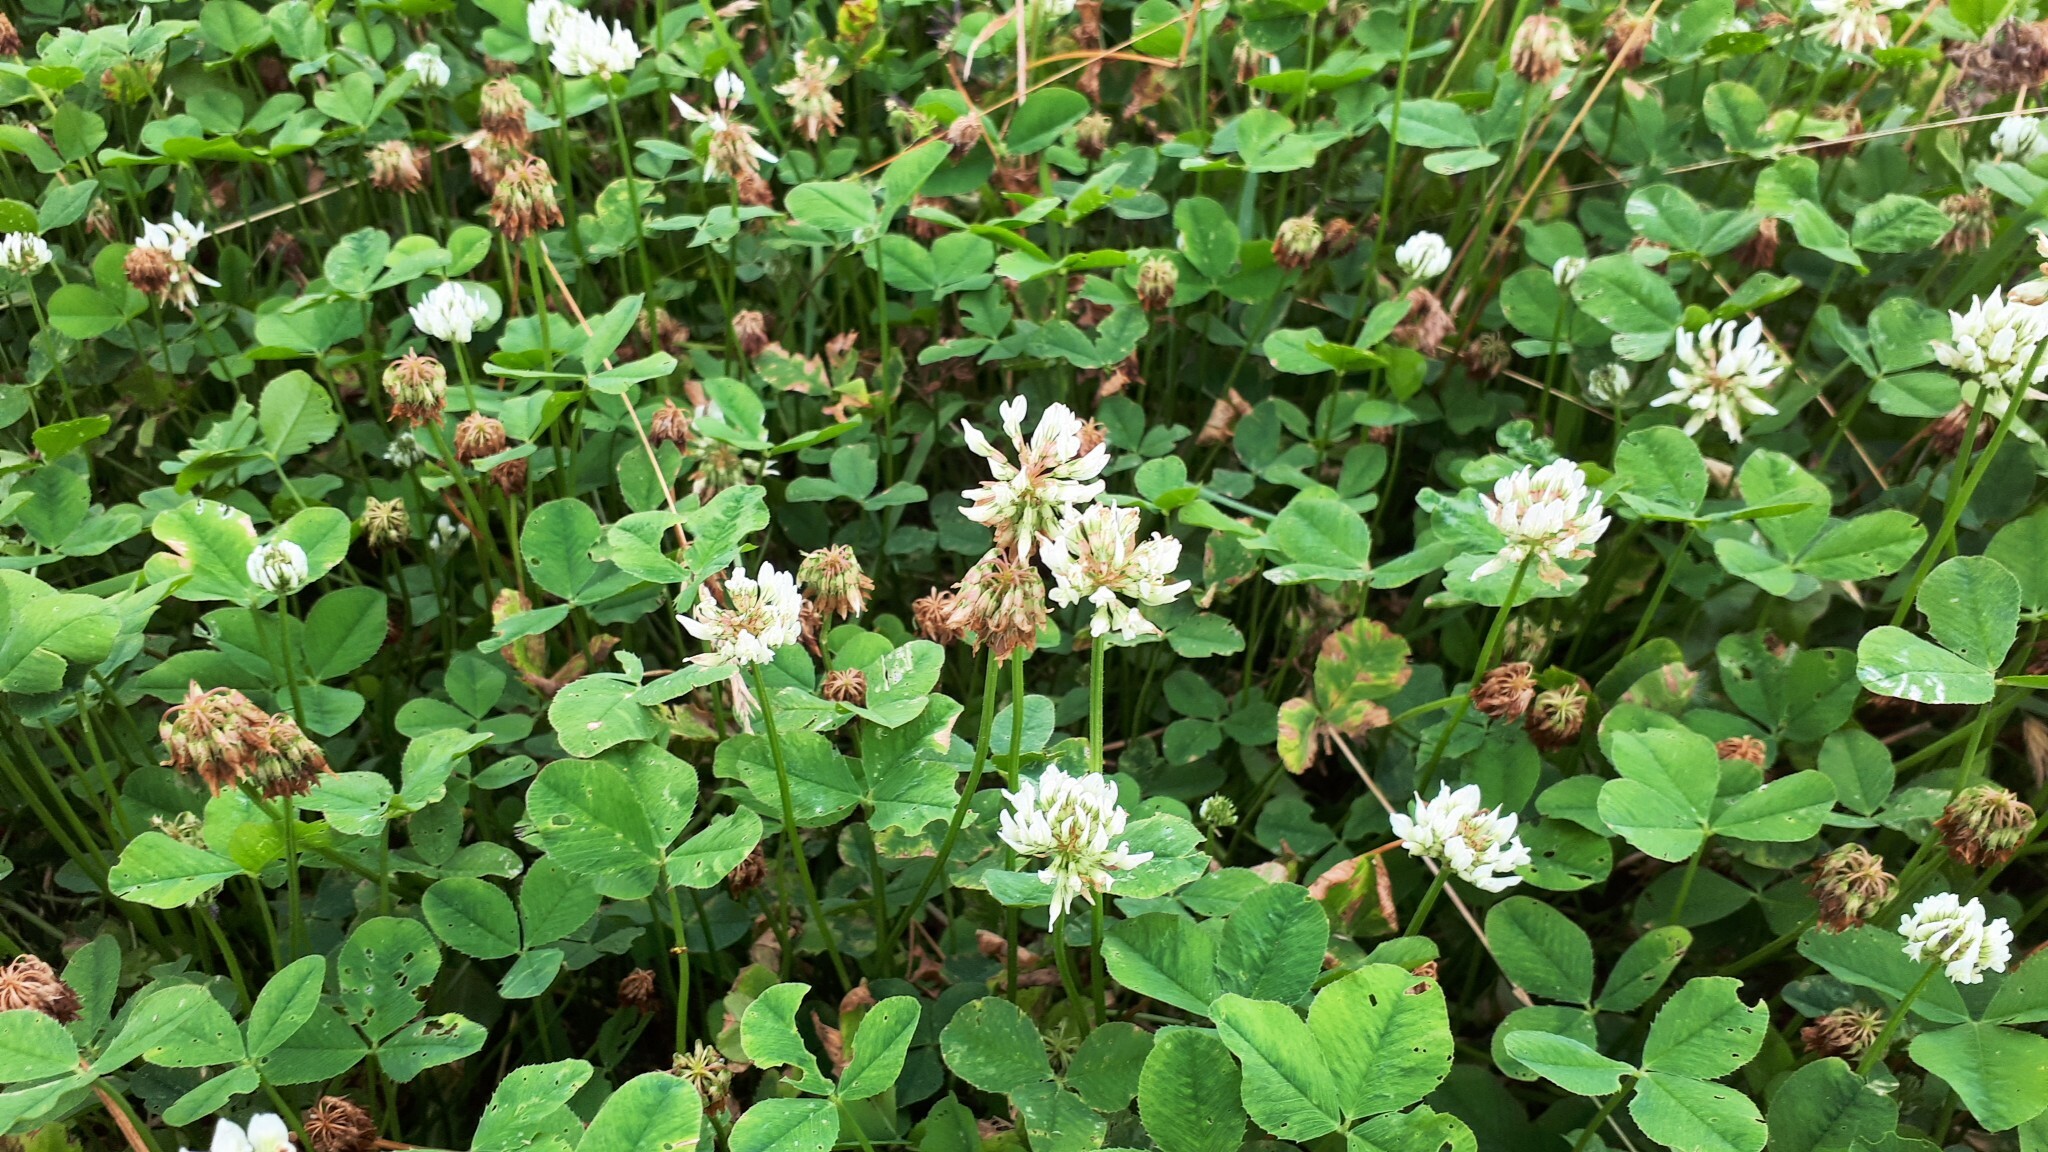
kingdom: Plantae
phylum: Tracheophyta
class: Magnoliopsida
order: Fabales
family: Fabaceae
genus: Trifolium
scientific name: Trifolium repens
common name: White clover
